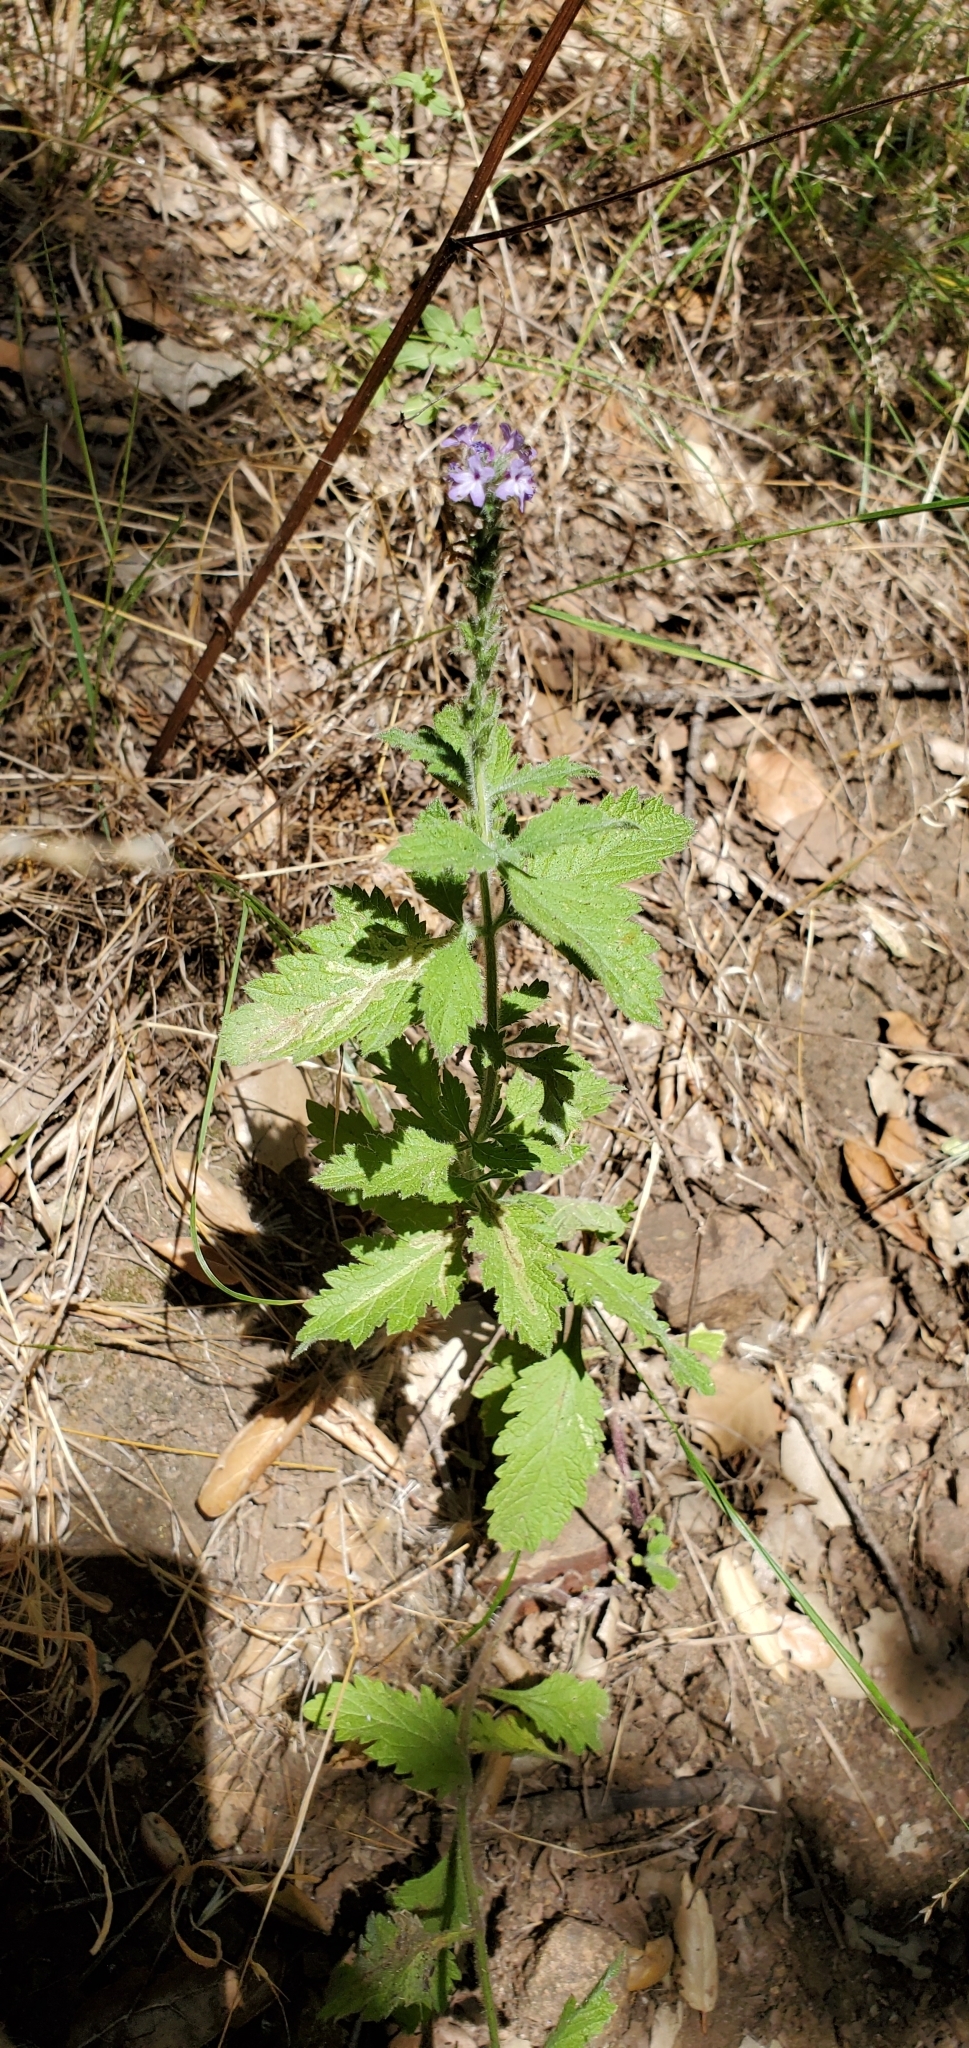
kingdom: Plantae
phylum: Tracheophyta
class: Magnoliopsida
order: Lamiales
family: Verbenaceae
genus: Verbena
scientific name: Verbena lasiostachys
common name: Vervain
